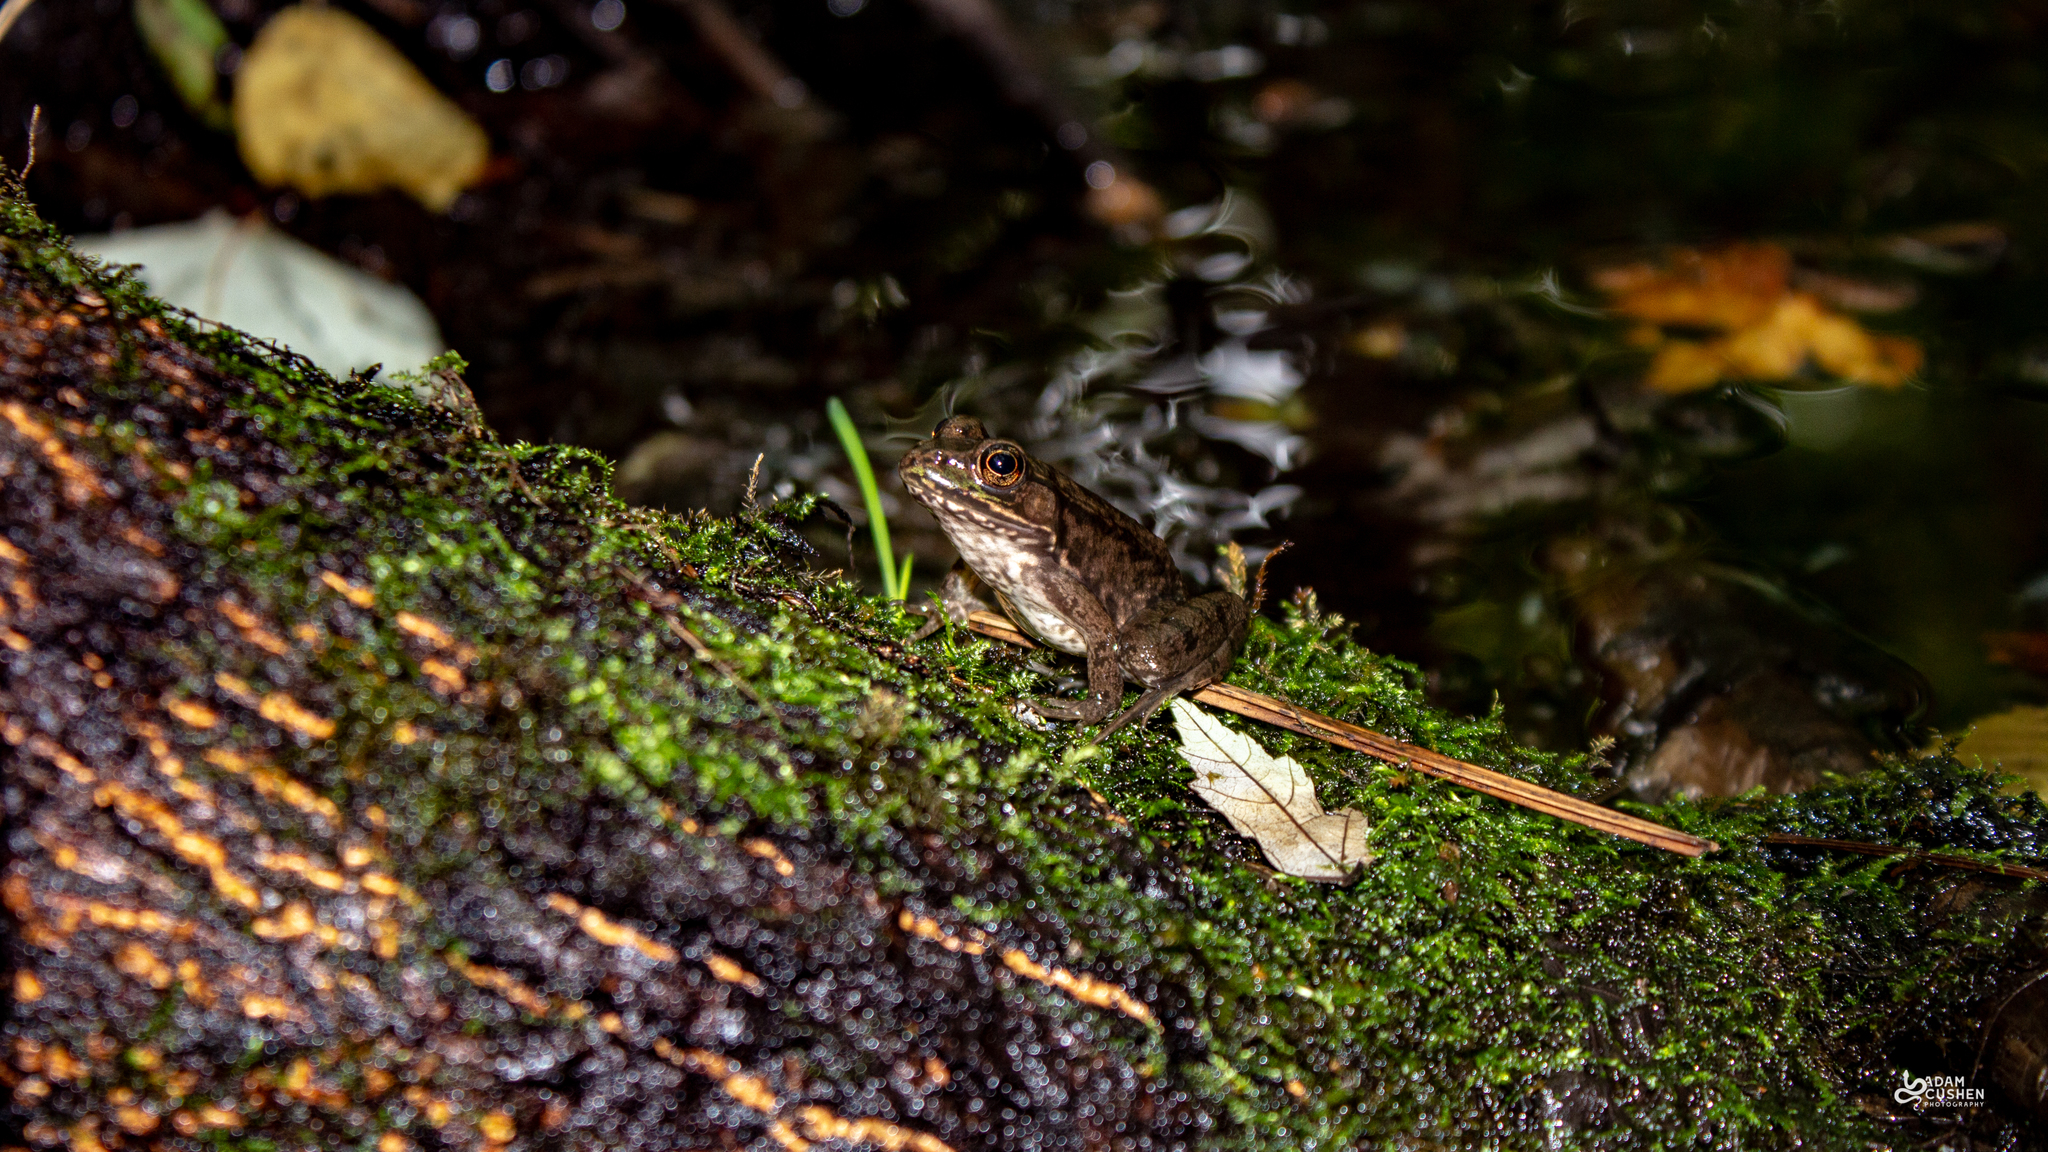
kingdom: Animalia
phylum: Chordata
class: Amphibia
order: Anura
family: Ranidae
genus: Lithobates
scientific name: Lithobates clamitans
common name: Green frog
